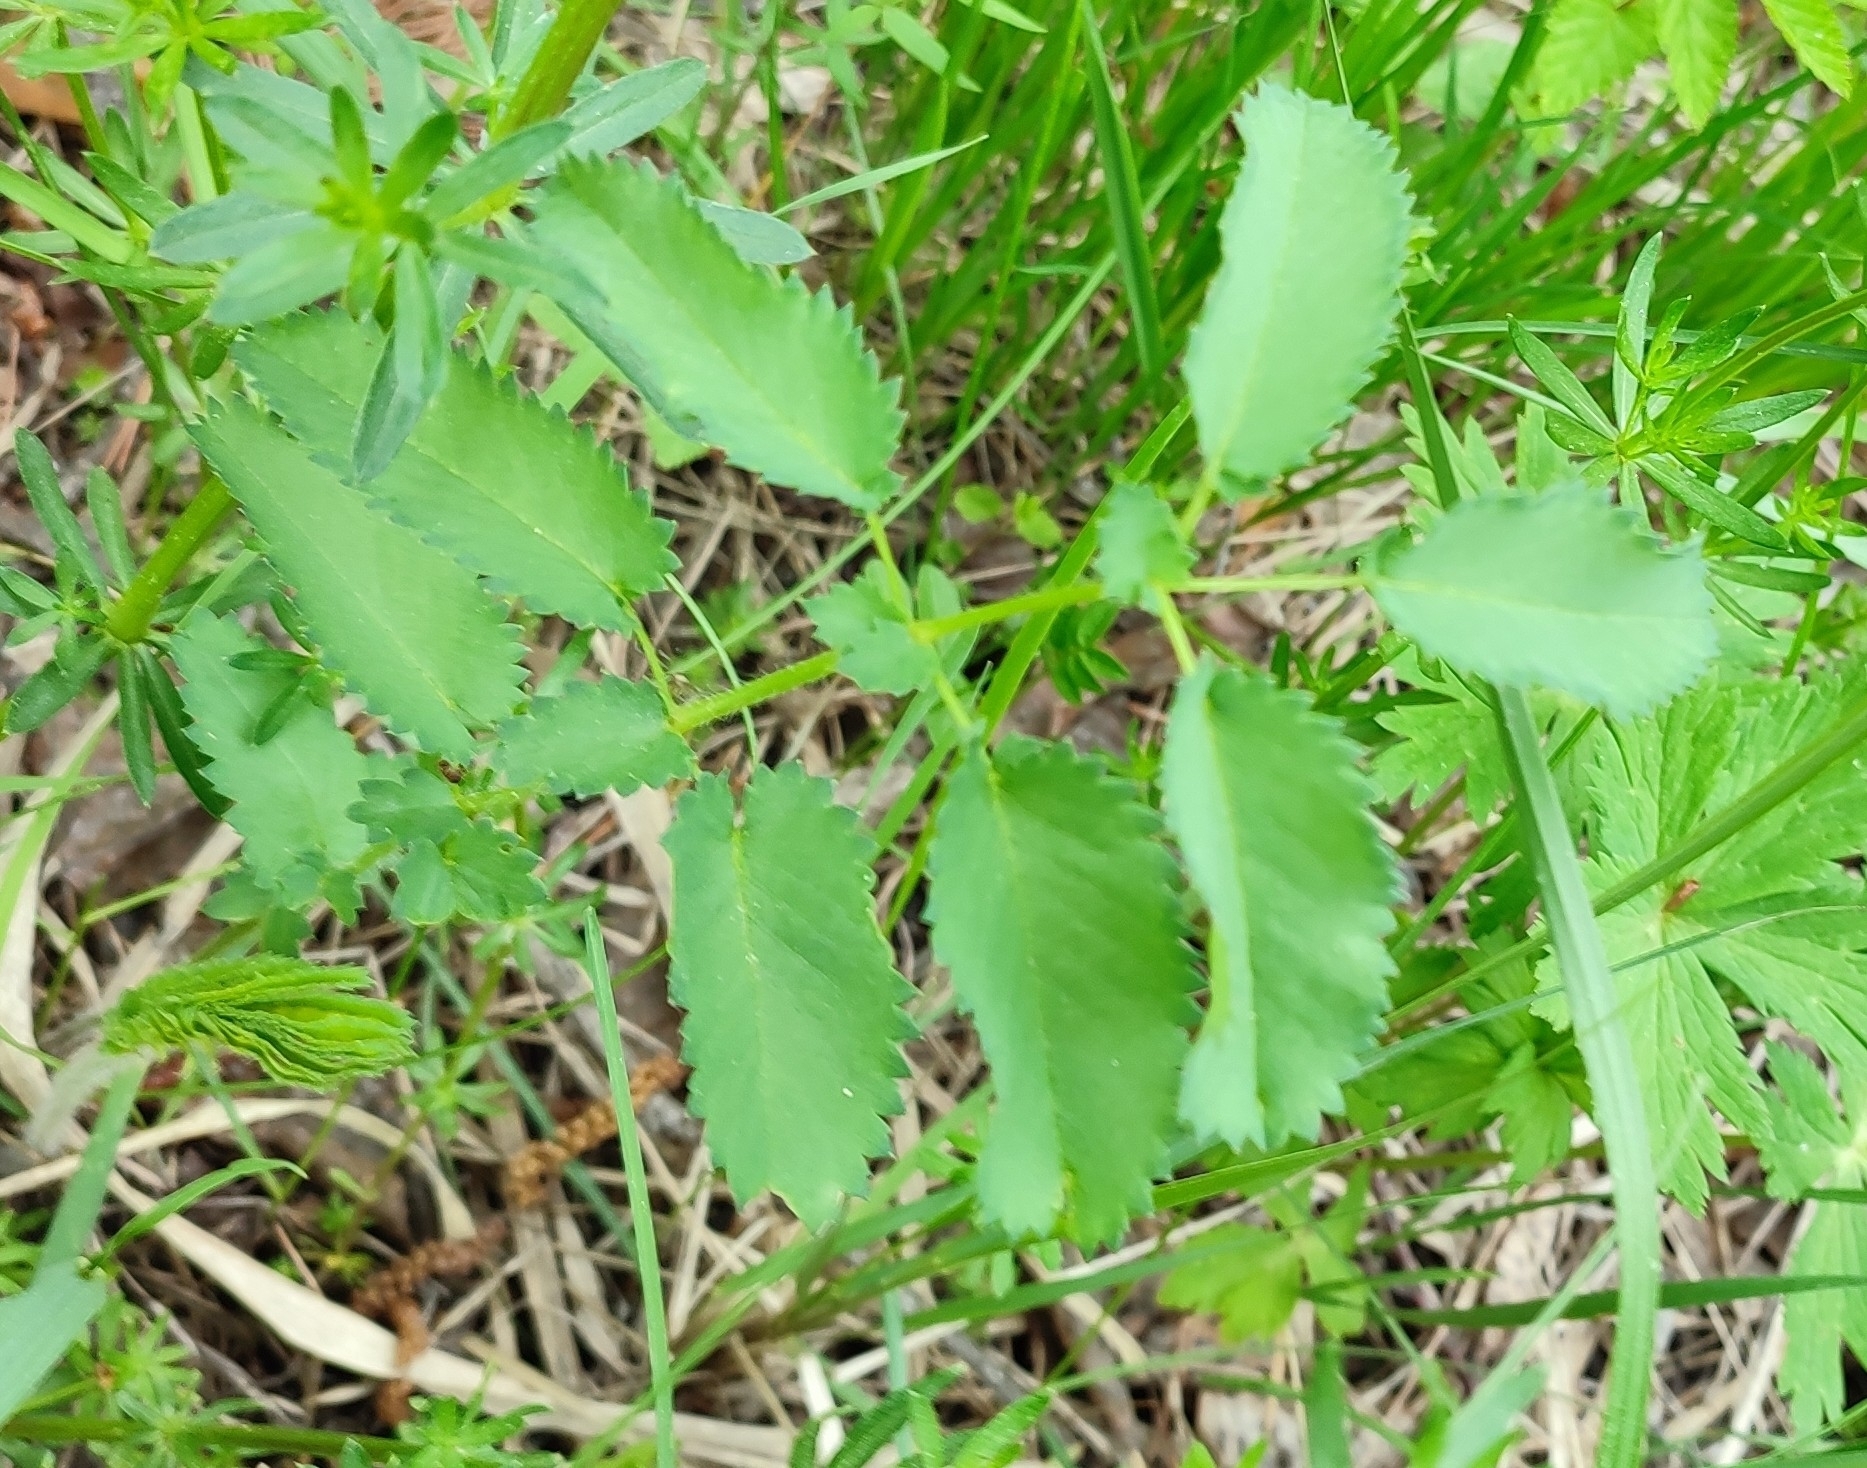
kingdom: Plantae
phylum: Tracheophyta
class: Magnoliopsida
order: Rosales
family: Rosaceae
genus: Sanguisorba
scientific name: Sanguisorba officinalis
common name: Great burnet
